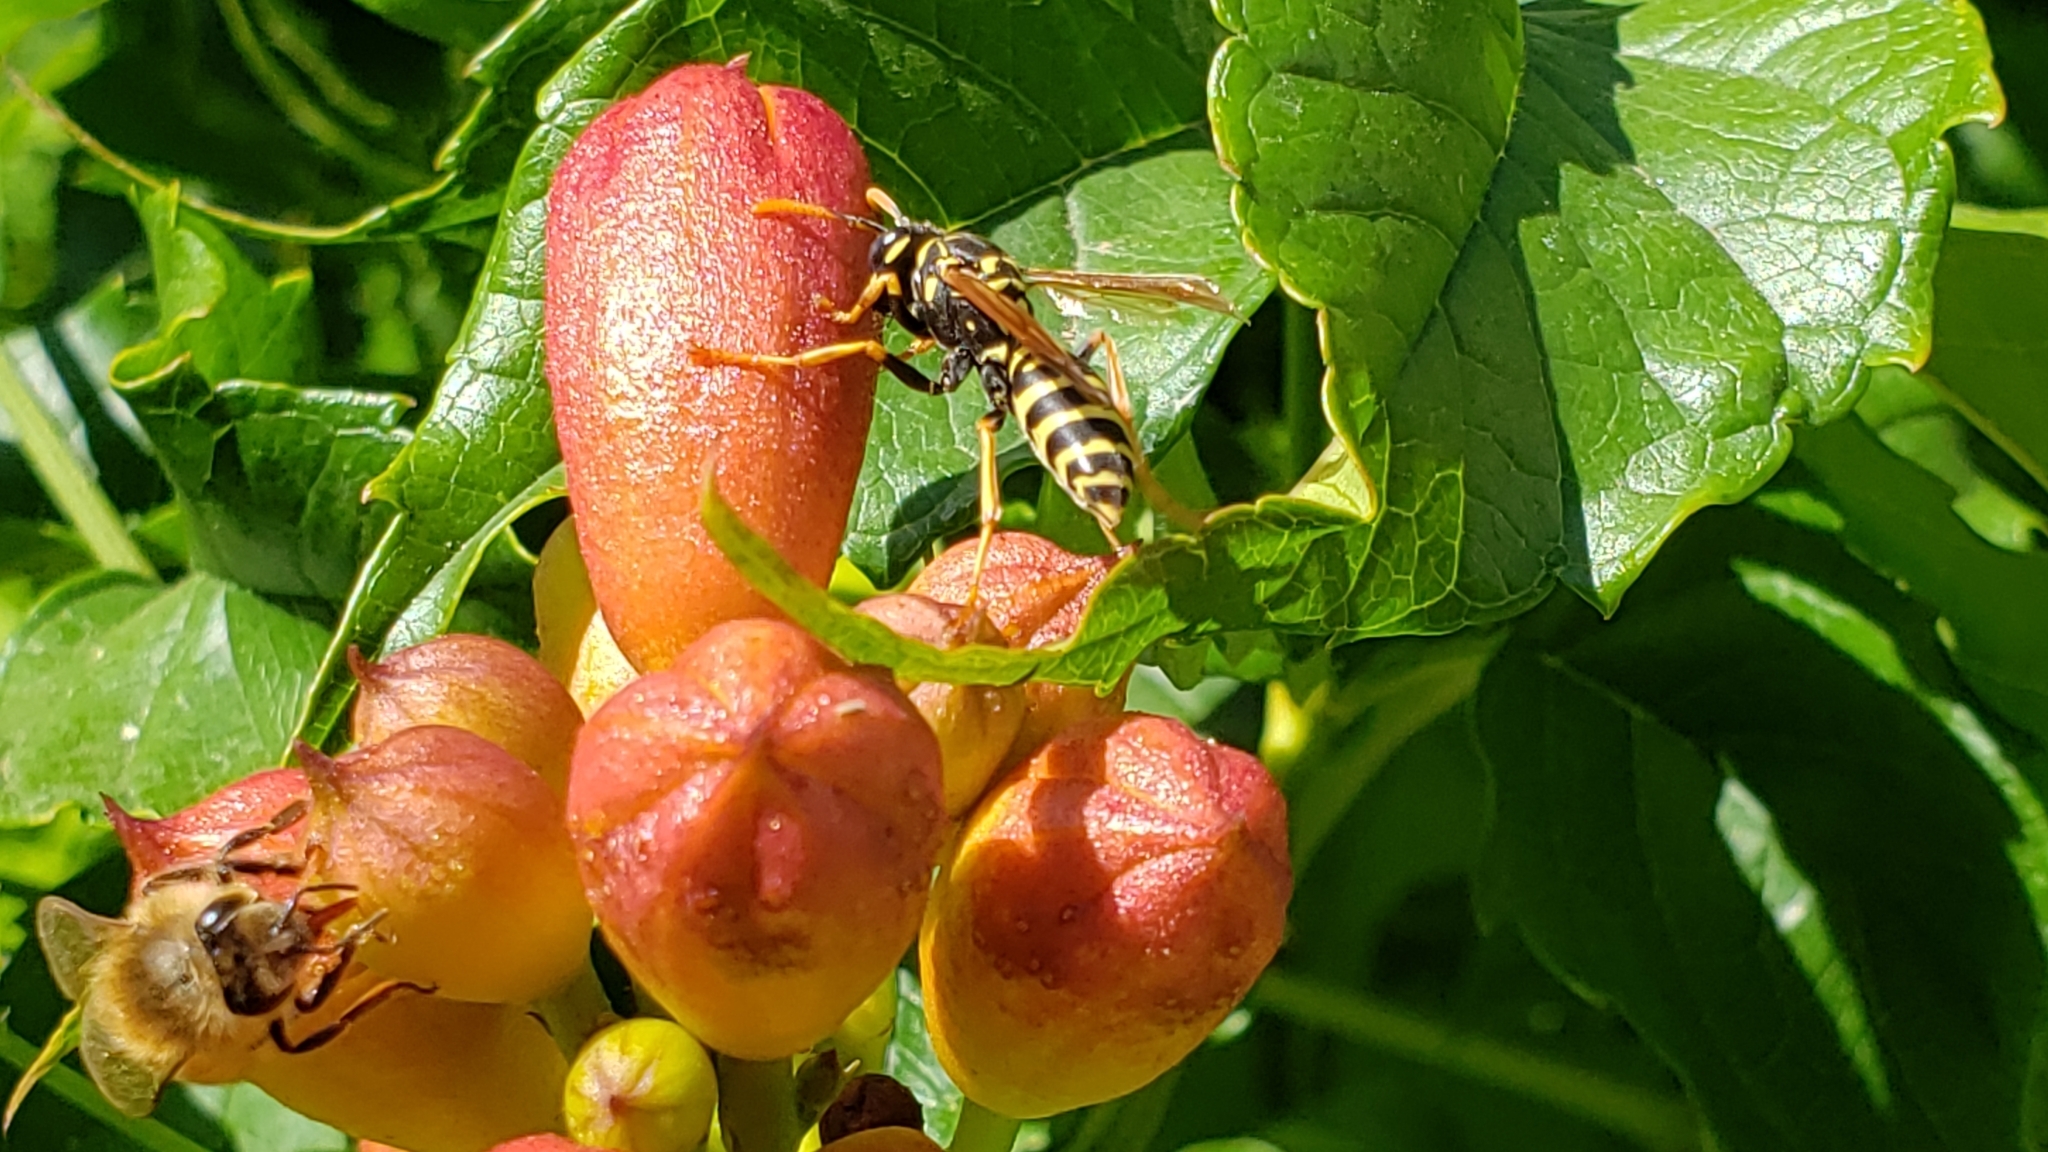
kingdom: Animalia
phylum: Arthropoda
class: Insecta
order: Hymenoptera
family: Eumenidae
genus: Polistes
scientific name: Polistes dominula
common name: Paper wasp
